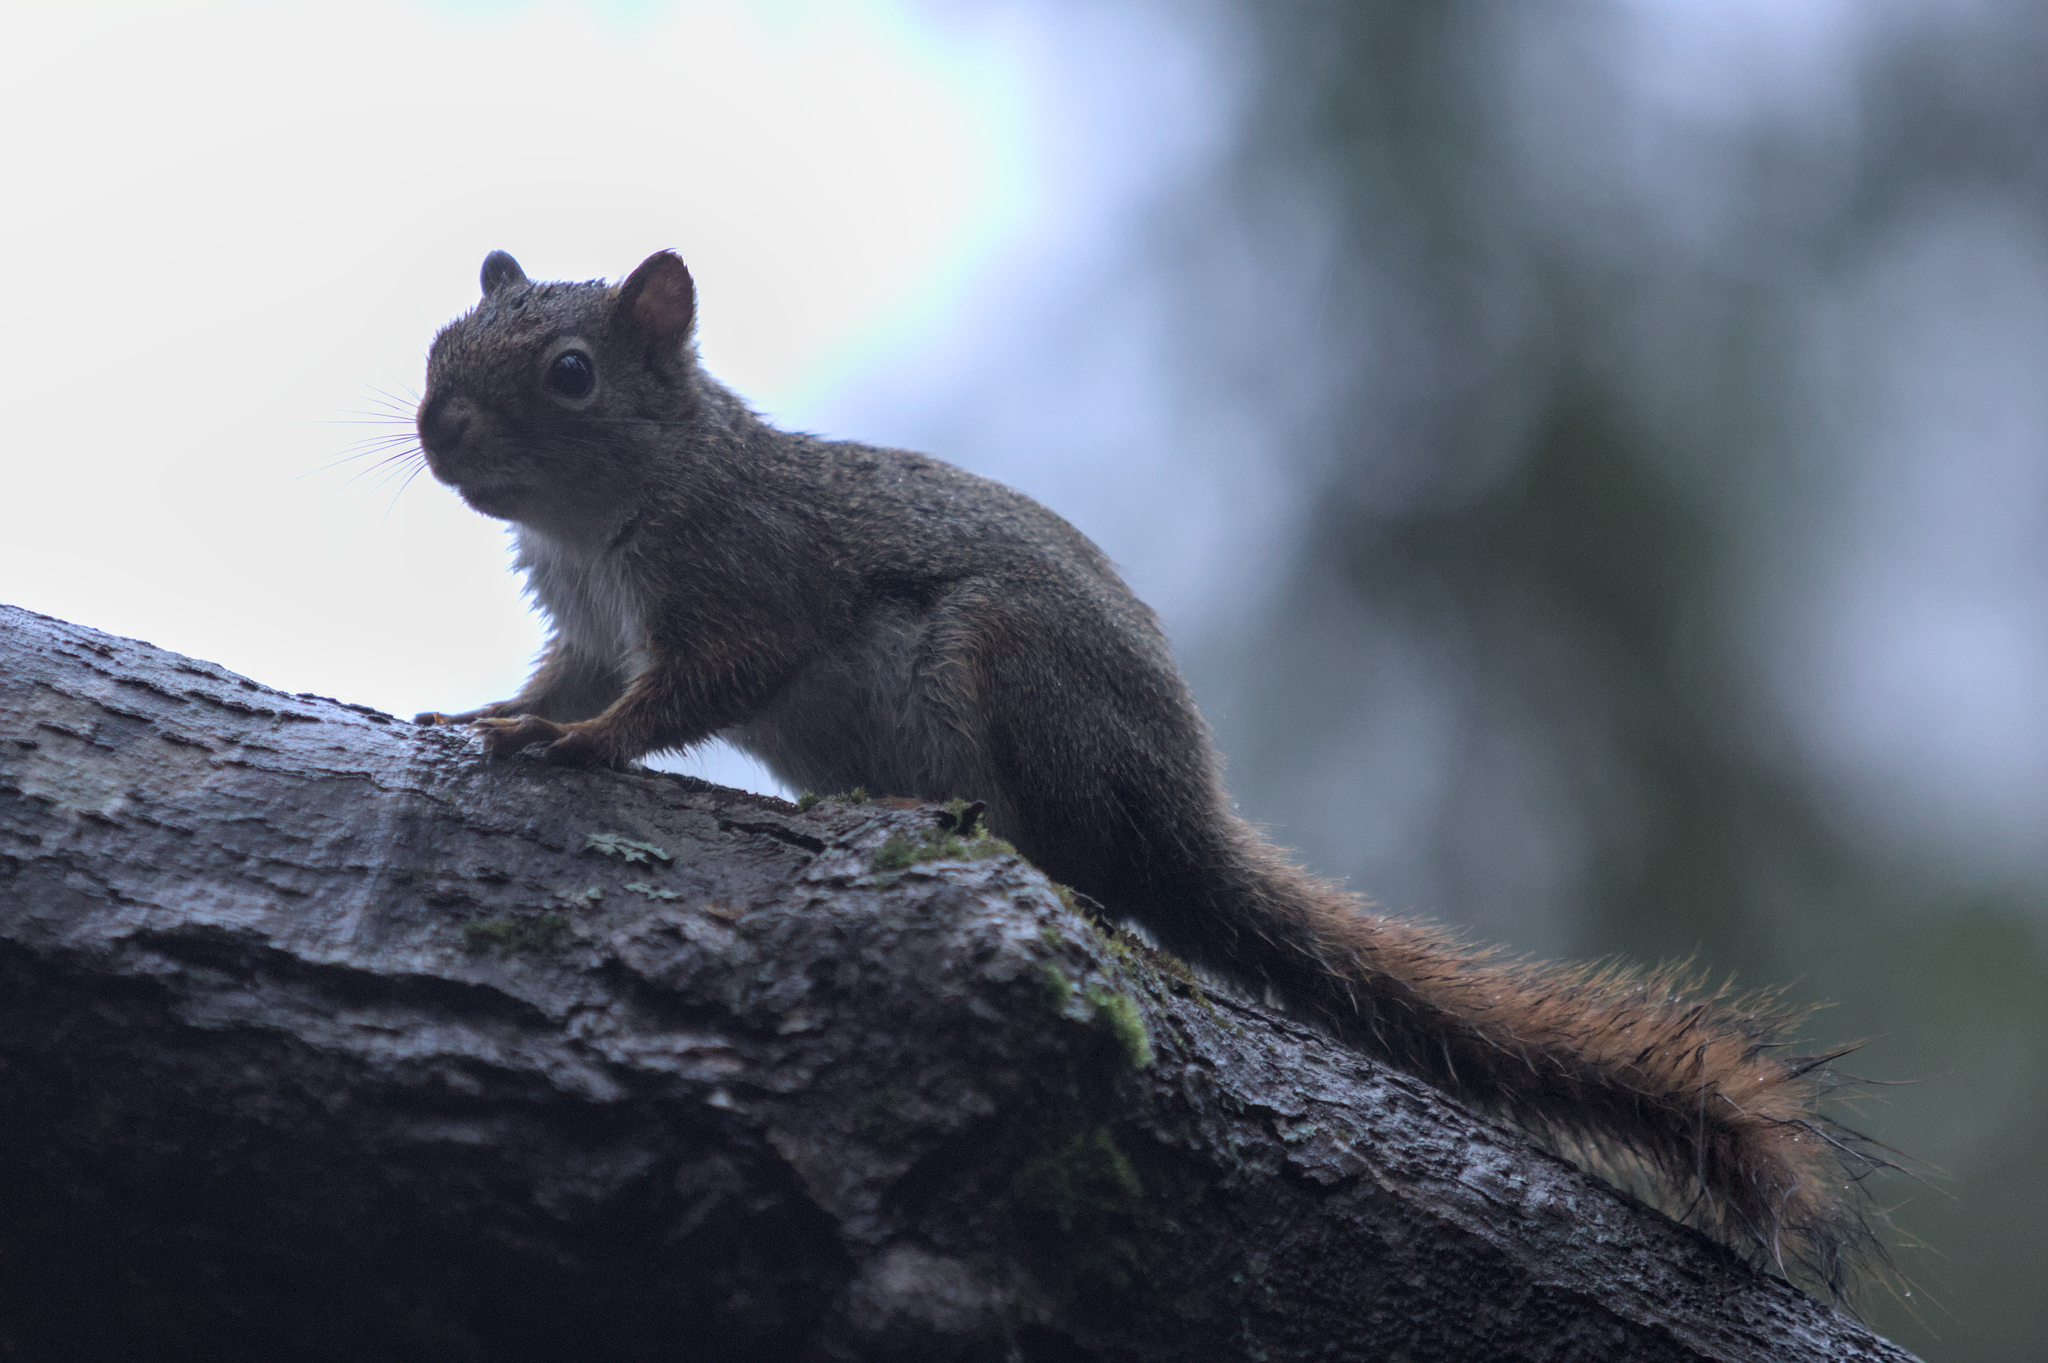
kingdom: Animalia
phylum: Chordata
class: Mammalia
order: Rodentia
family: Sciuridae
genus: Tamiasciurus
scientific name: Tamiasciurus hudsonicus
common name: Red squirrel
